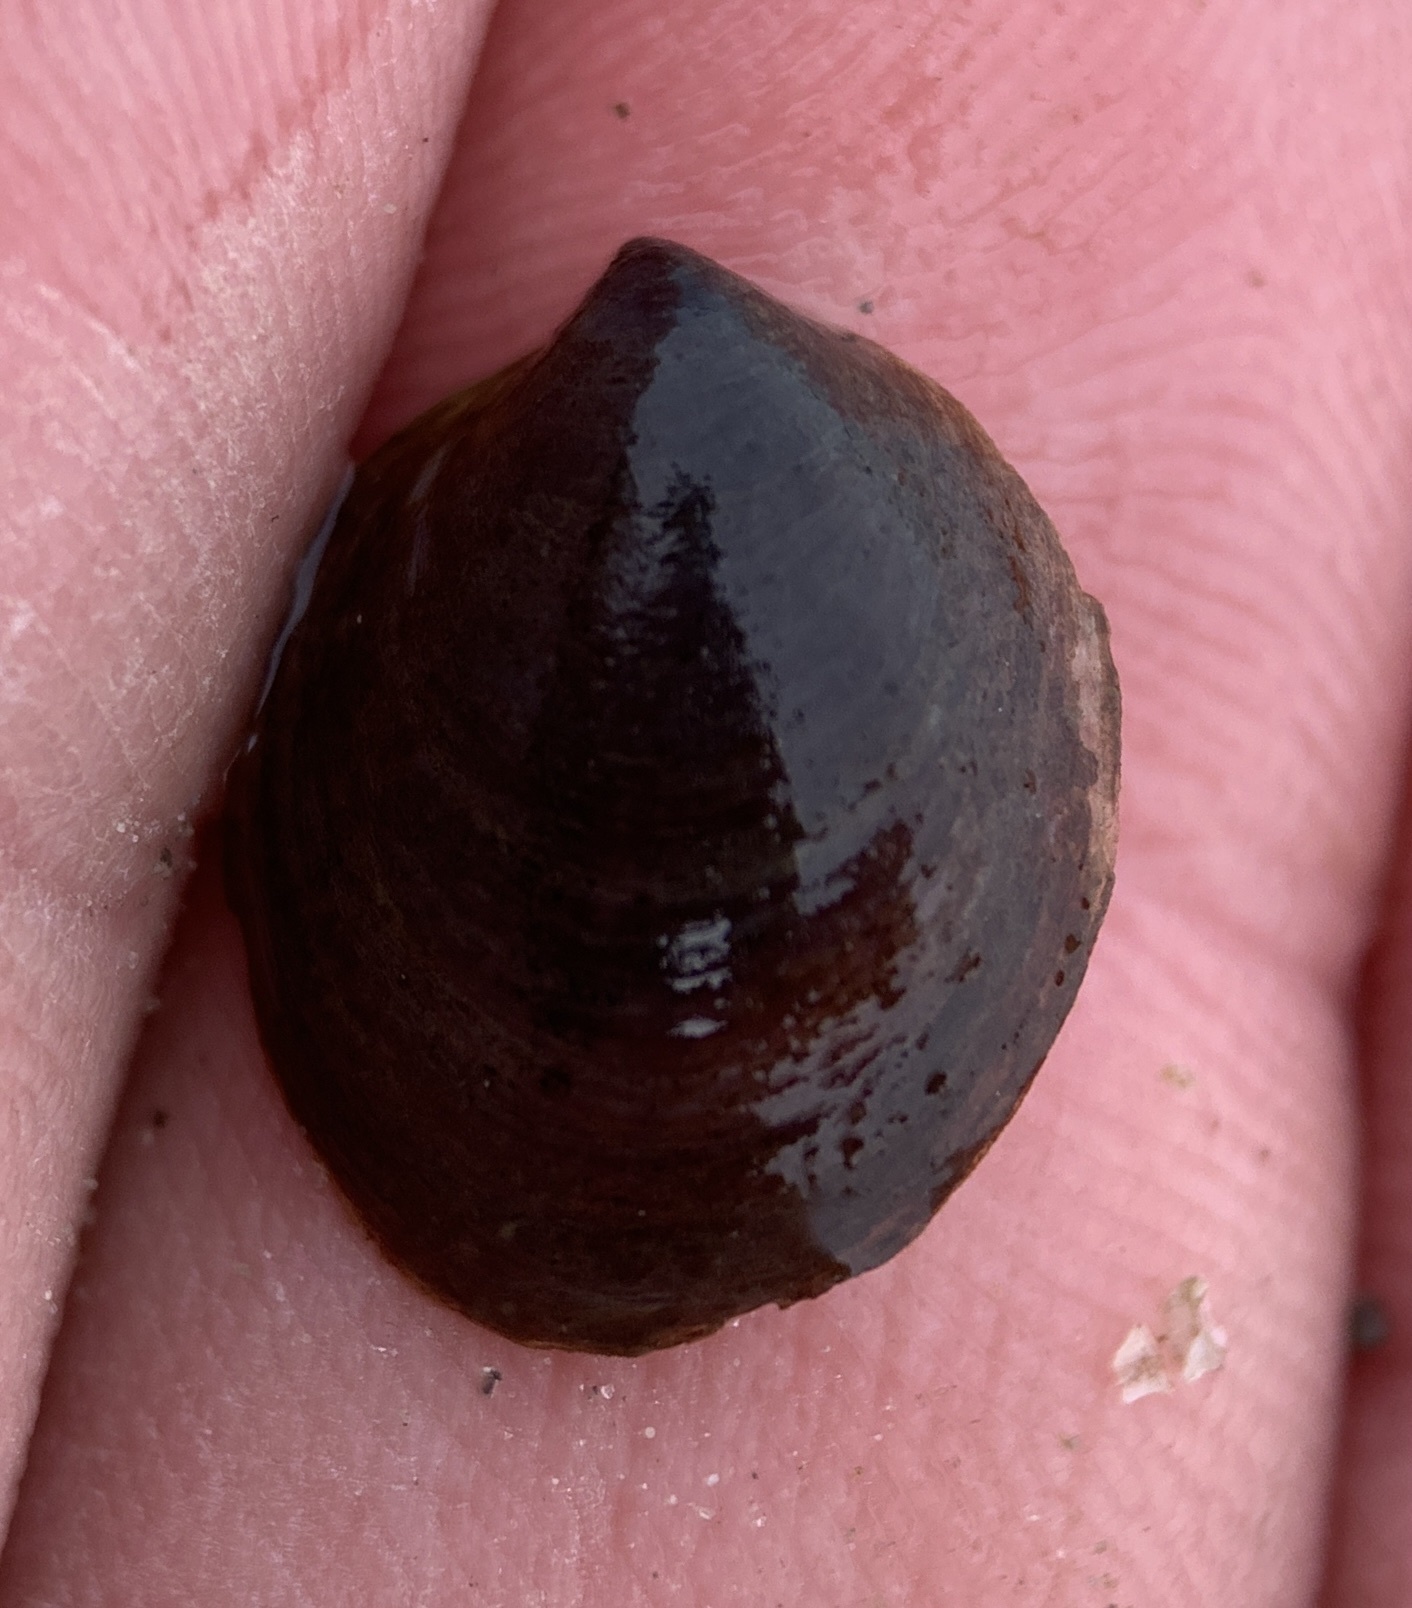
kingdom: Animalia
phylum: Mollusca
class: Gastropoda
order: Littorinimorpha
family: Calyptraeidae
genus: Crepidula
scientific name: Crepidula convexa
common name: Convex slippersnail
